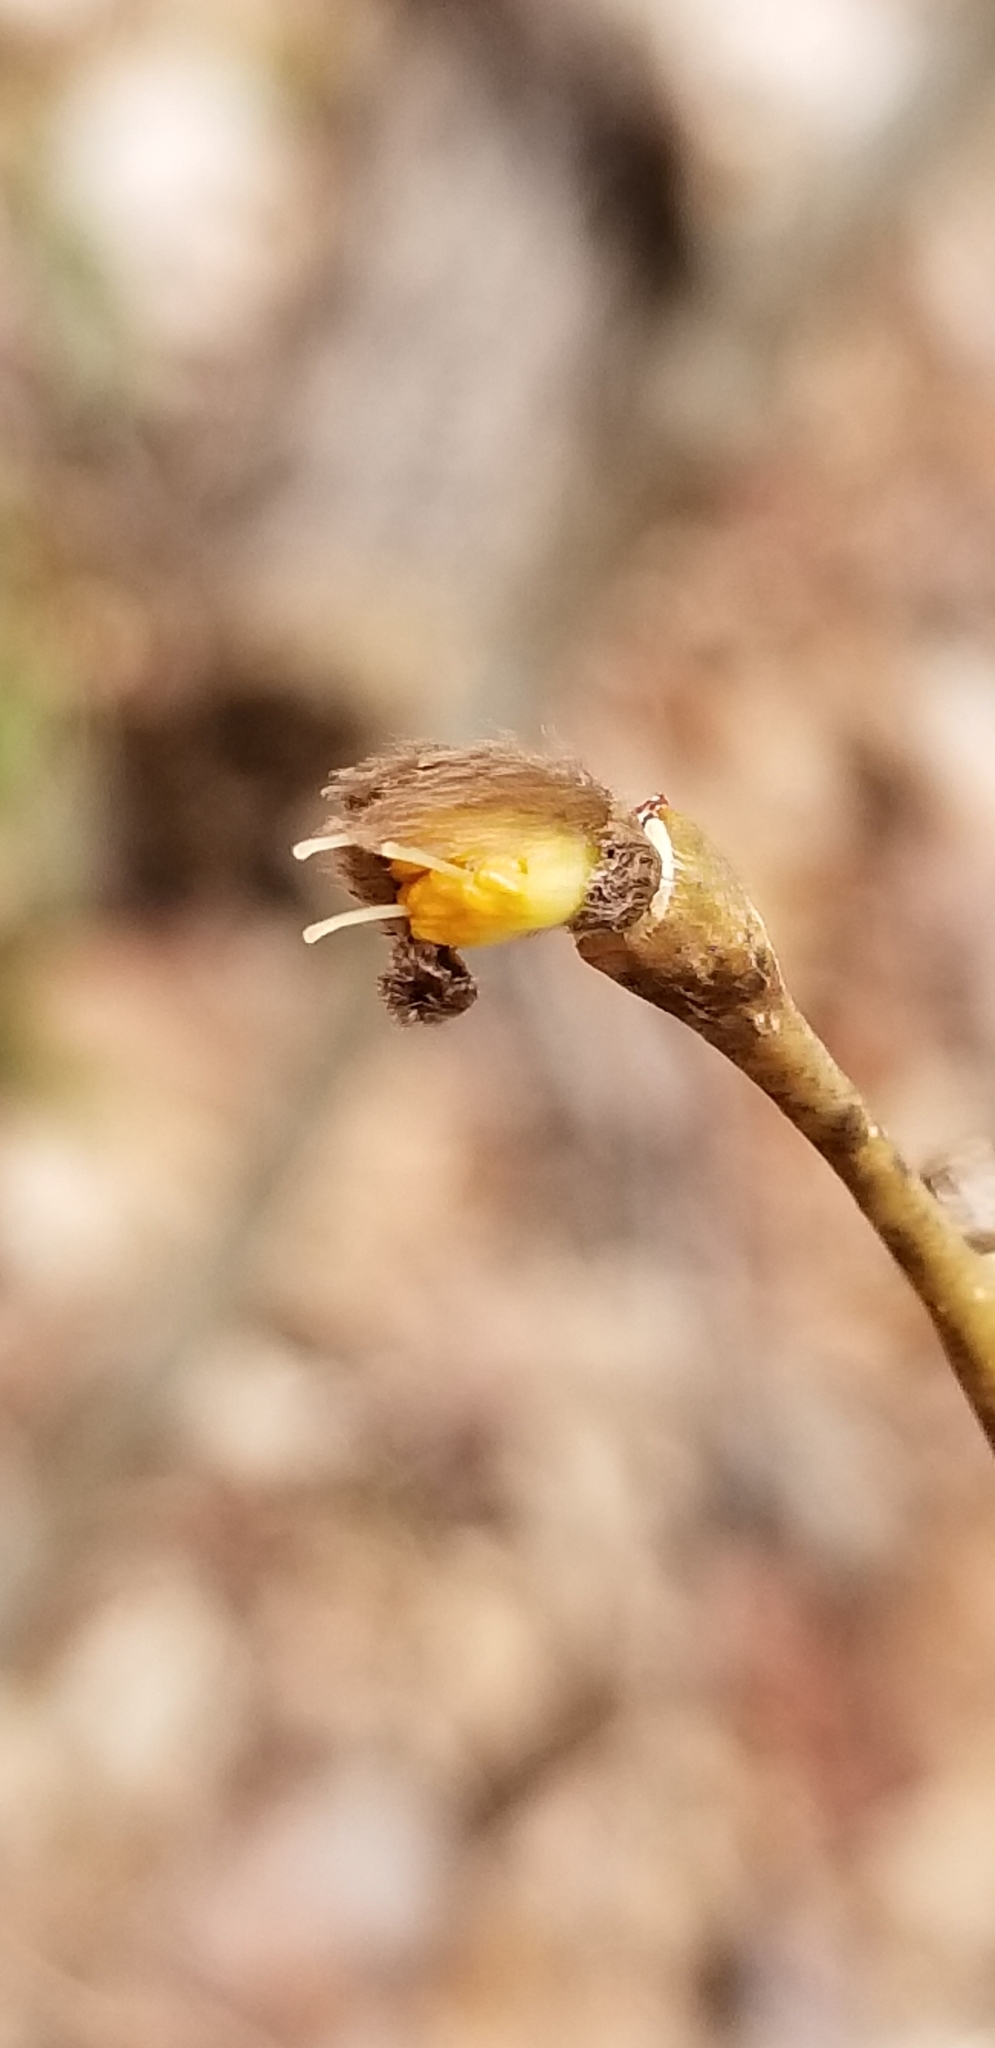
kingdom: Plantae
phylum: Tracheophyta
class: Magnoliopsida
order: Malvales
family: Thymelaeaceae
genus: Dirca
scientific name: Dirca palustris
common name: Leatherwood
